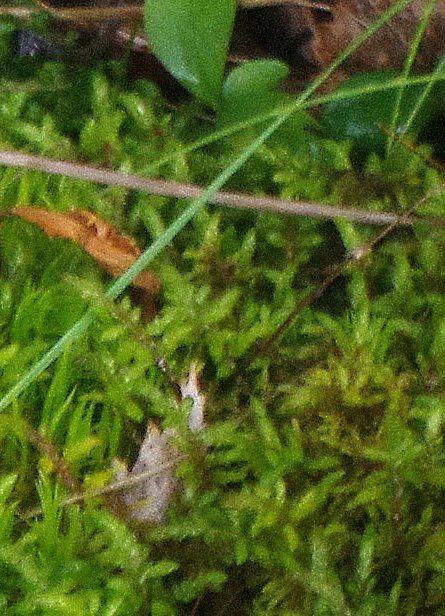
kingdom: Plantae
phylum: Bryophyta
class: Bryopsida
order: Hypnales
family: Hylocomiaceae
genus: Pleurozium
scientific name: Pleurozium schreberi
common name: Red-stemmed feather moss
